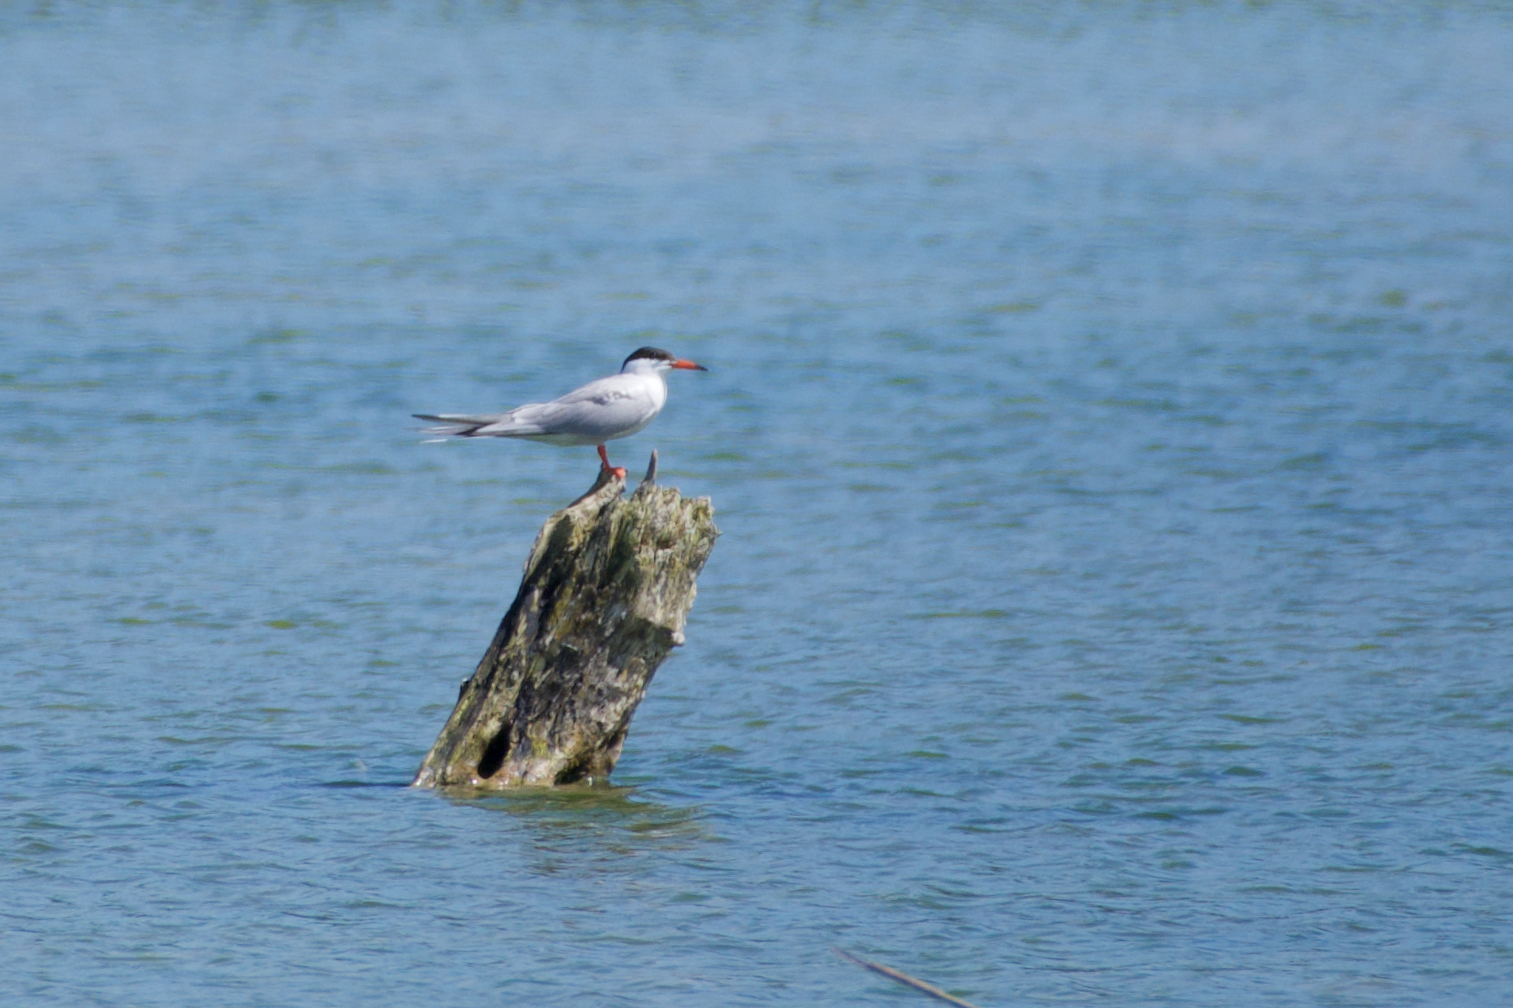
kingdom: Animalia
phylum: Chordata
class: Aves
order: Charadriiformes
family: Laridae
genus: Sterna
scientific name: Sterna hirundo
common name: Common tern
